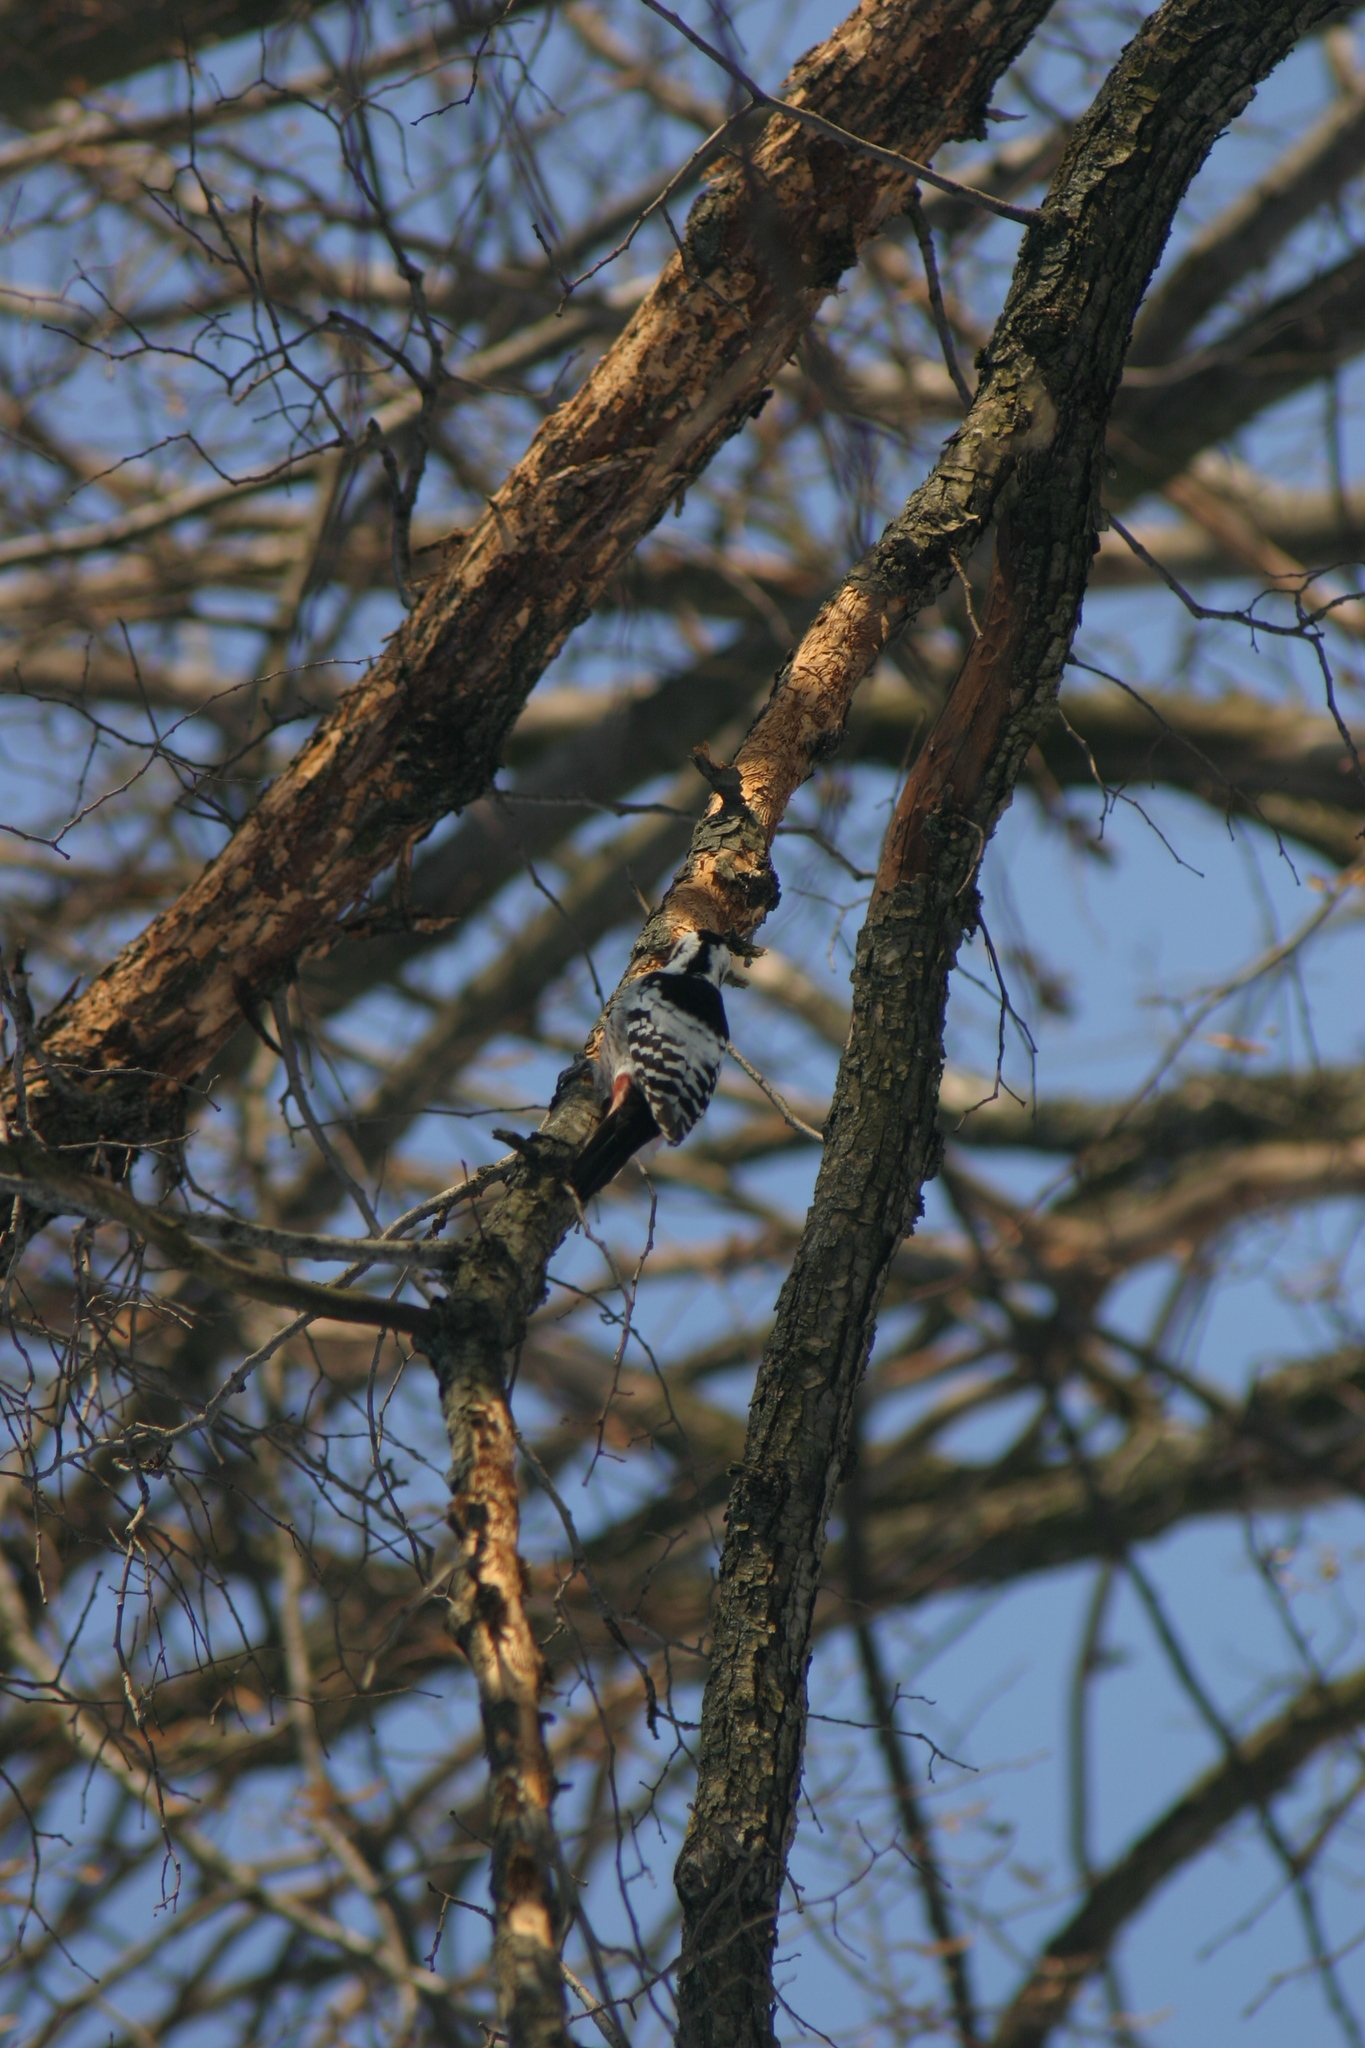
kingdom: Animalia
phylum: Chordata
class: Aves
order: Piciformes
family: Picidae
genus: Dendrocopos
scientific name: Dendrocopos leucotos
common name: White-backed woodpecker
